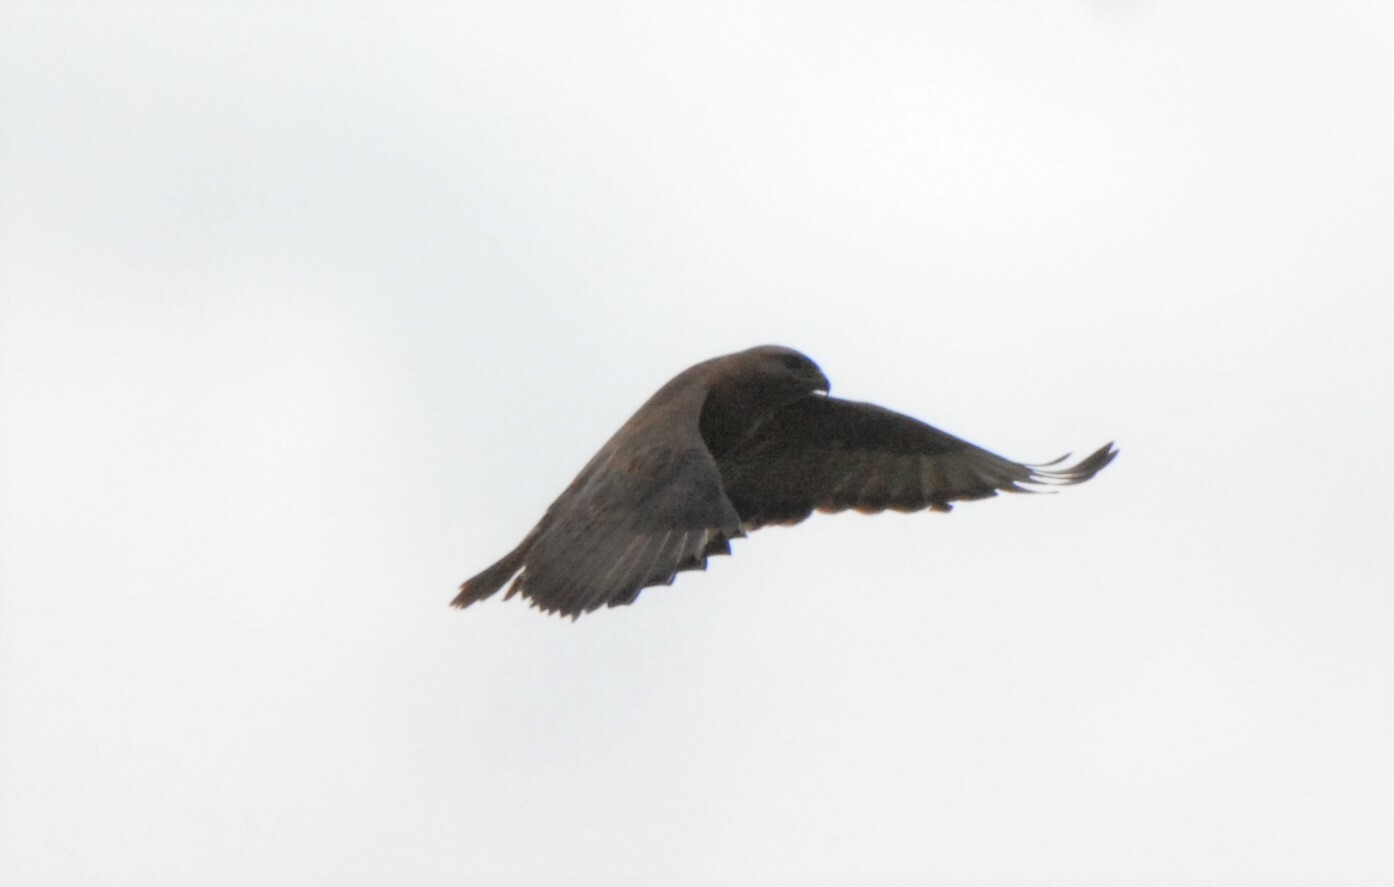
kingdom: Animalia
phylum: Chordata
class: Aves
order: Accipitriformes
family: Accipitridae
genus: Buteo
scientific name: Buteo buteo
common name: Common buzzard
